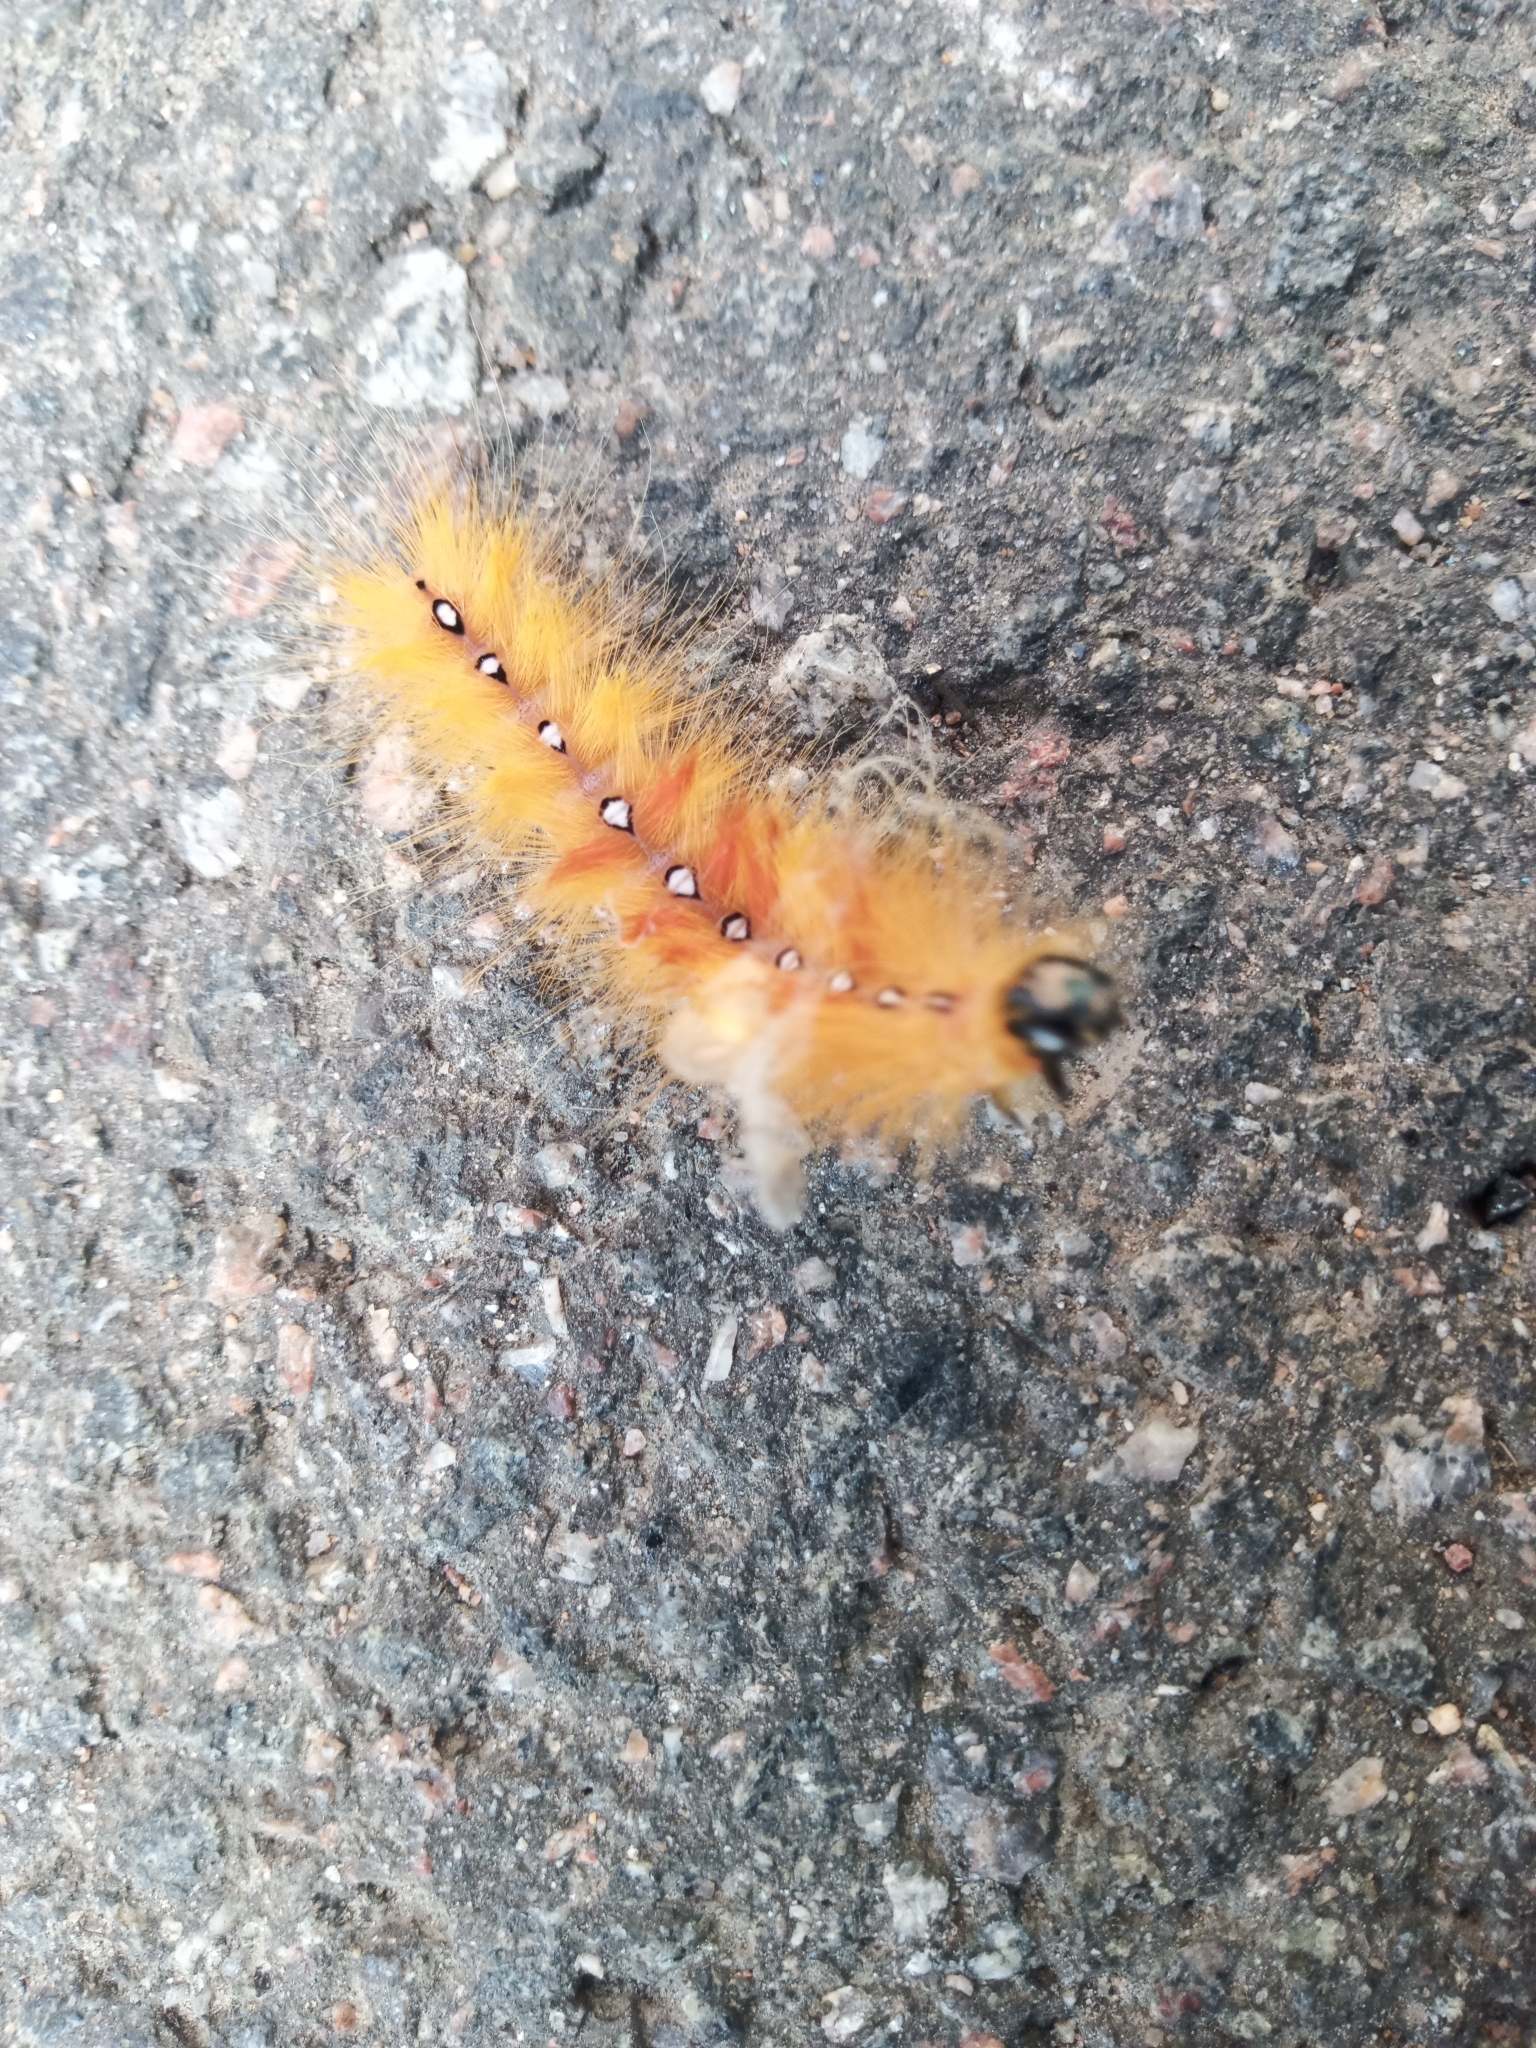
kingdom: Animalia
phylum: Arthropoda
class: Insecta
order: Lepidoptera
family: Noctuidae
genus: Acronicta
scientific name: Acronicta aceris
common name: Sycamore
